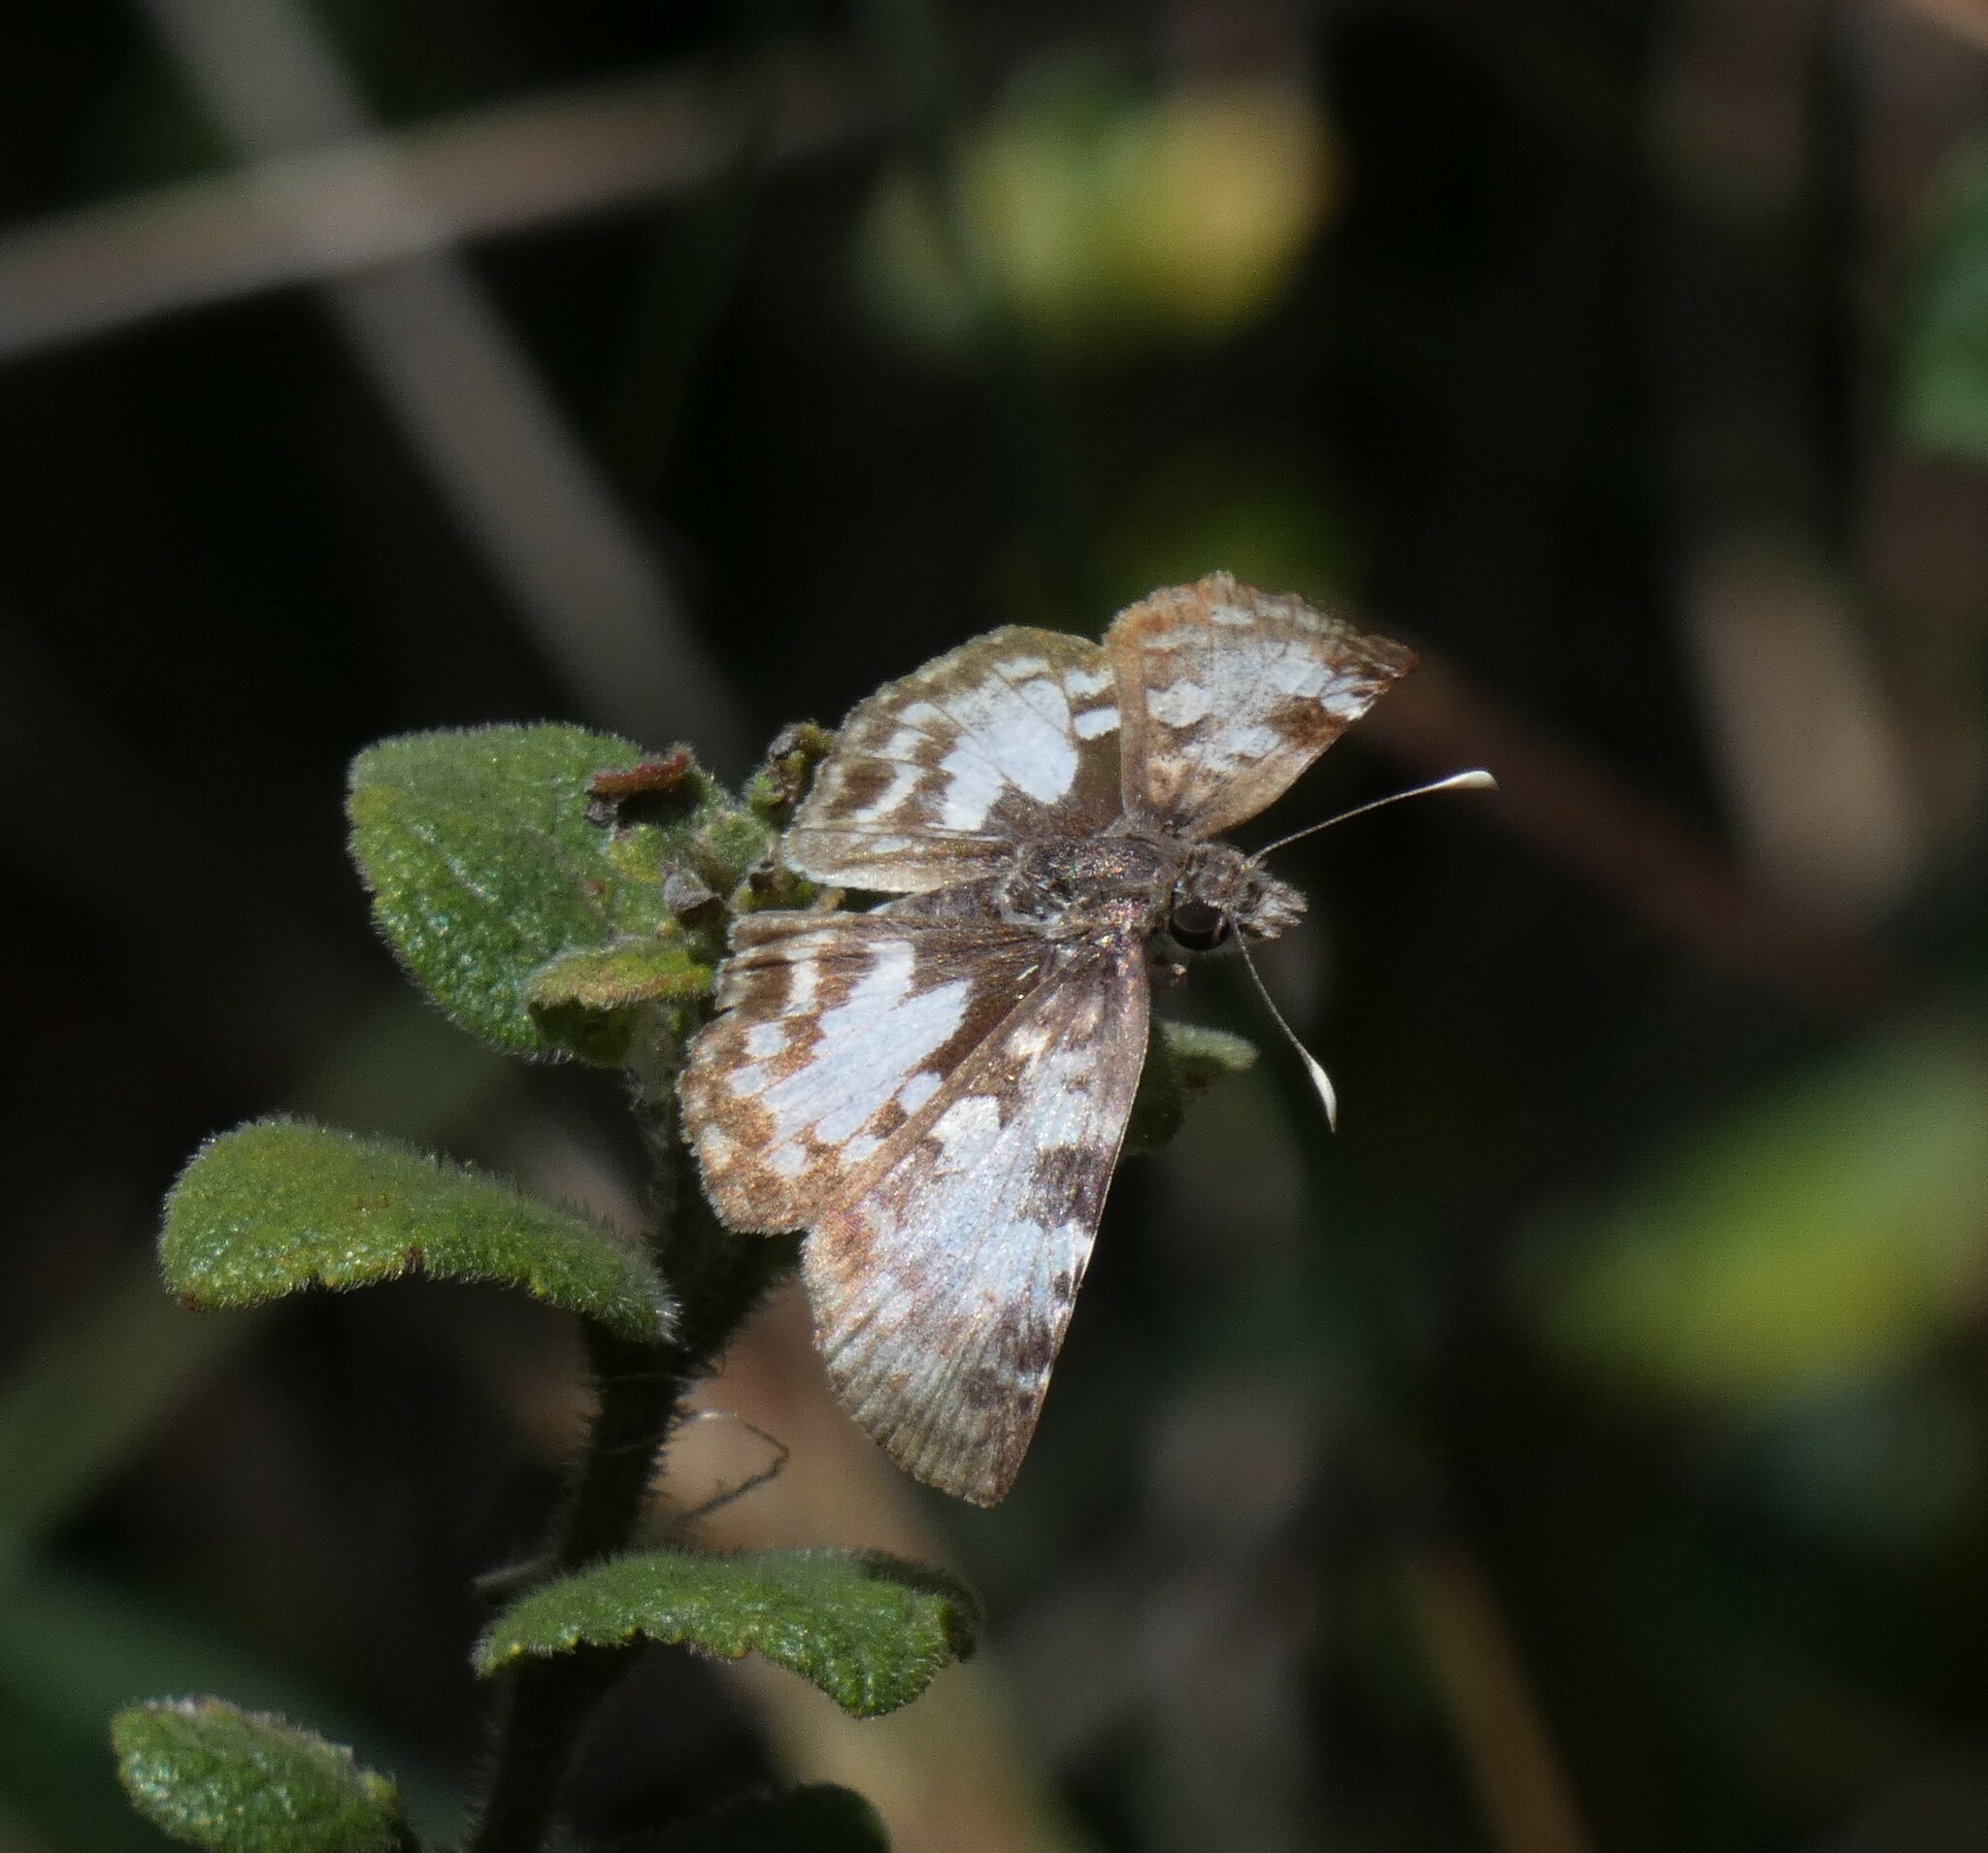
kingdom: Animalia
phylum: Arthropoda
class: Insecta
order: Lepidoptera
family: Hesperiidae
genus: Chiomara
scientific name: Chiomara asychis
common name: White-patterned skipper
